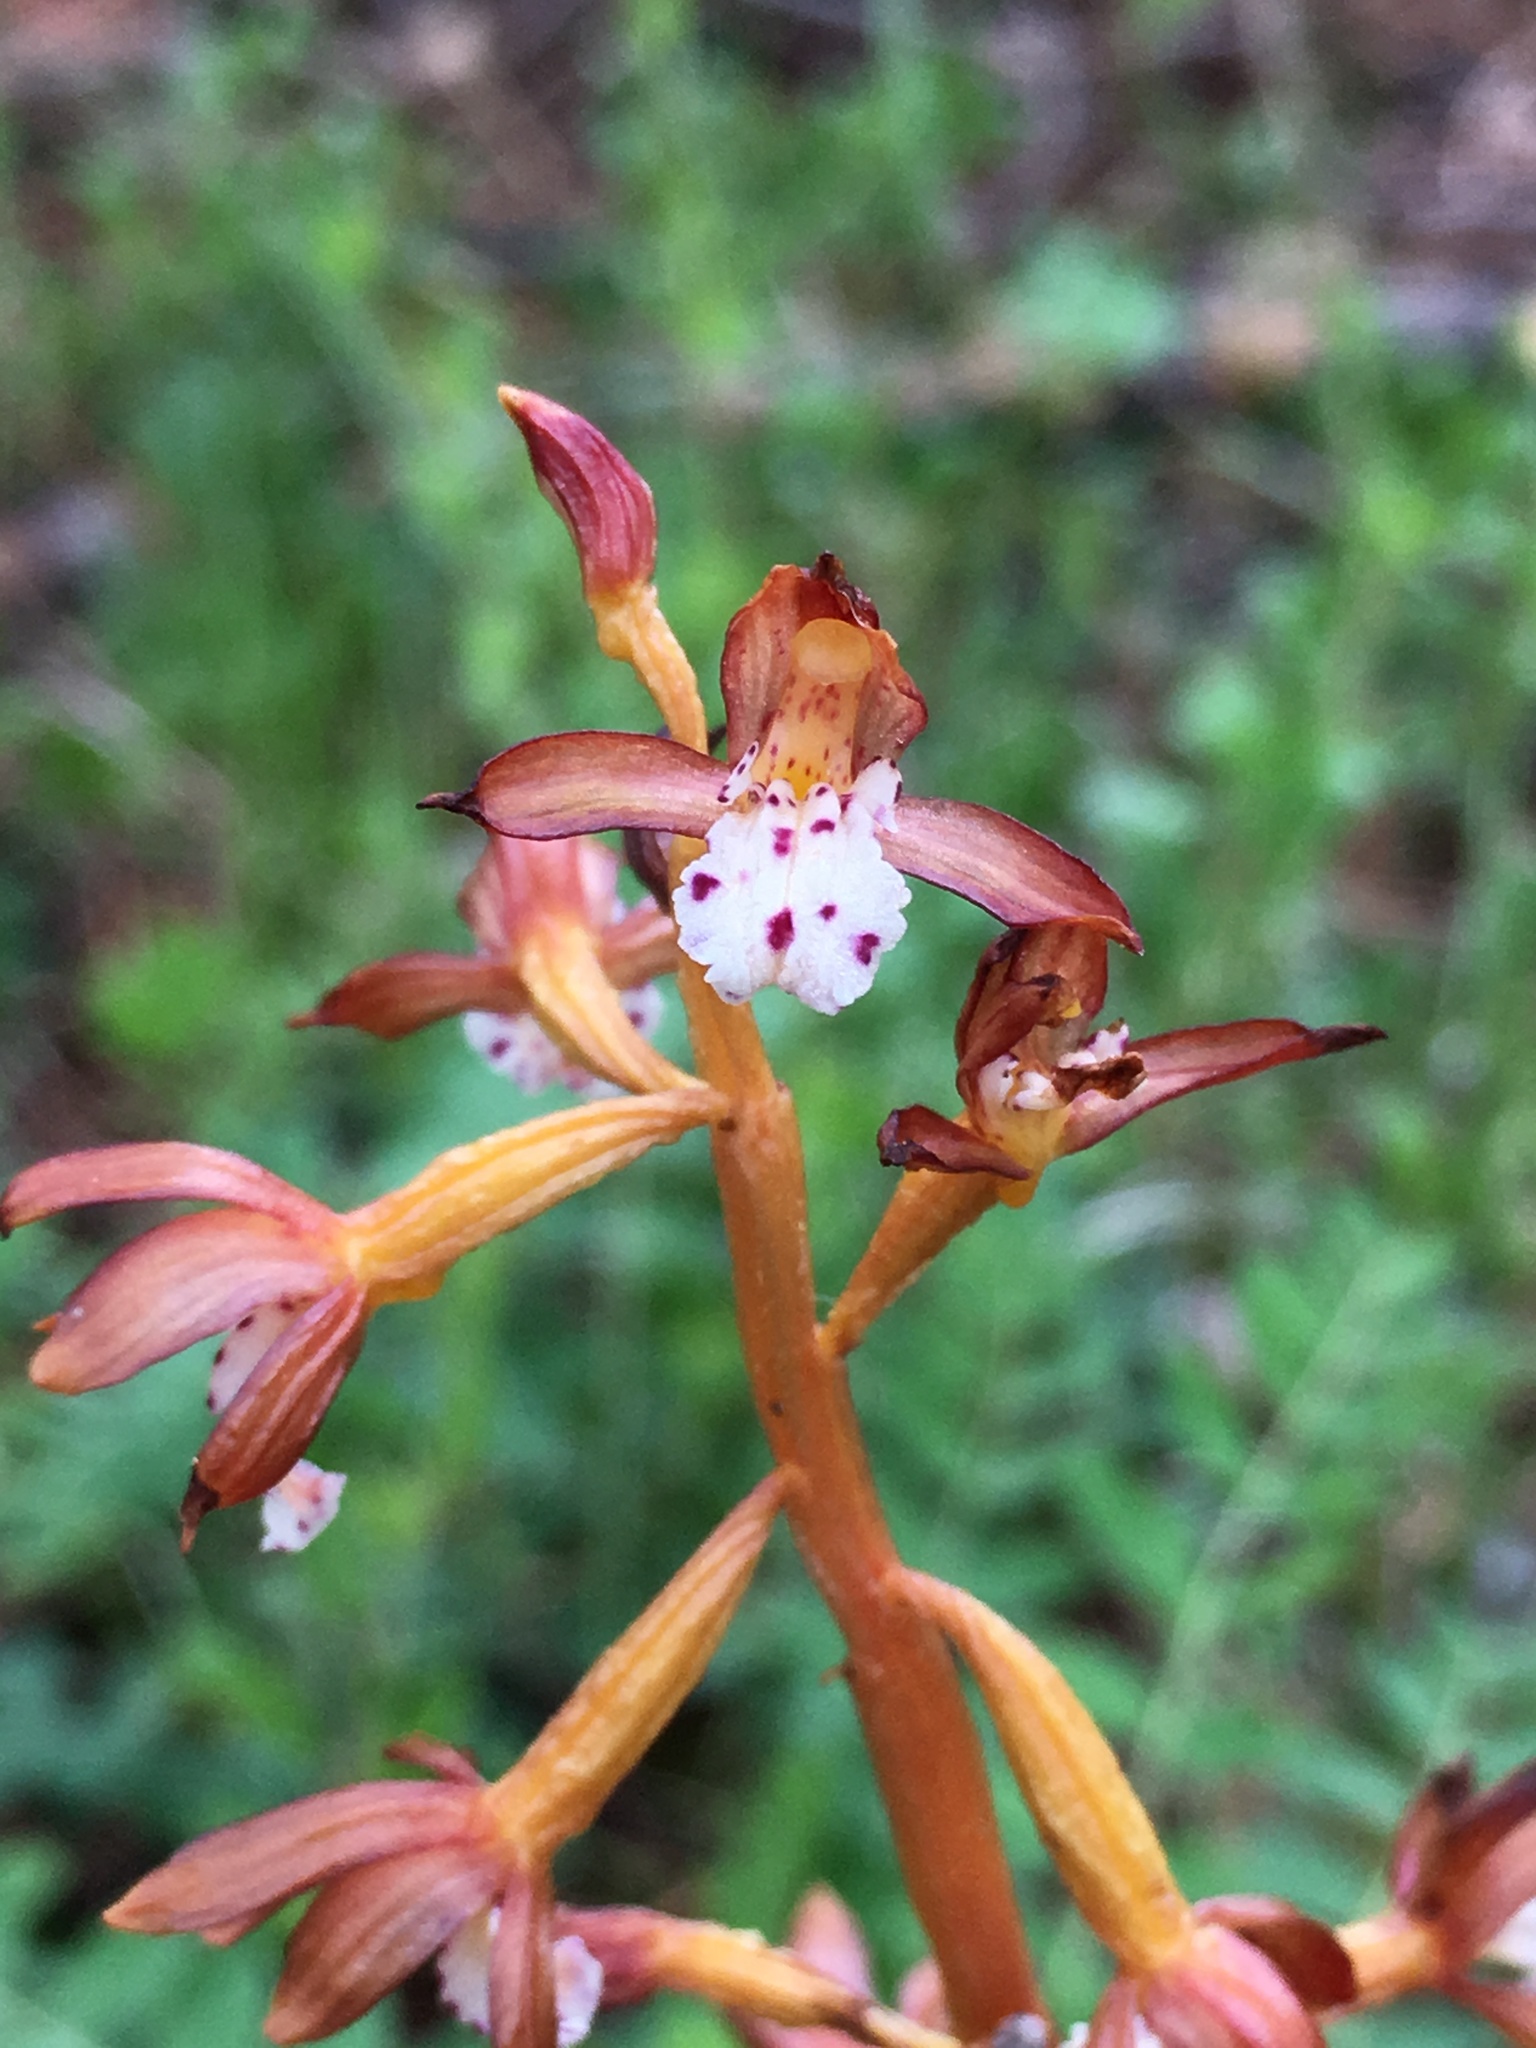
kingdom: Plantae
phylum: Tracheophyta
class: Liliopsida
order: Asparagales
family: Orchidaceae
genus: Corallorhiza
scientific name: Corallorhiza maculata
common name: Spotted coralroot
